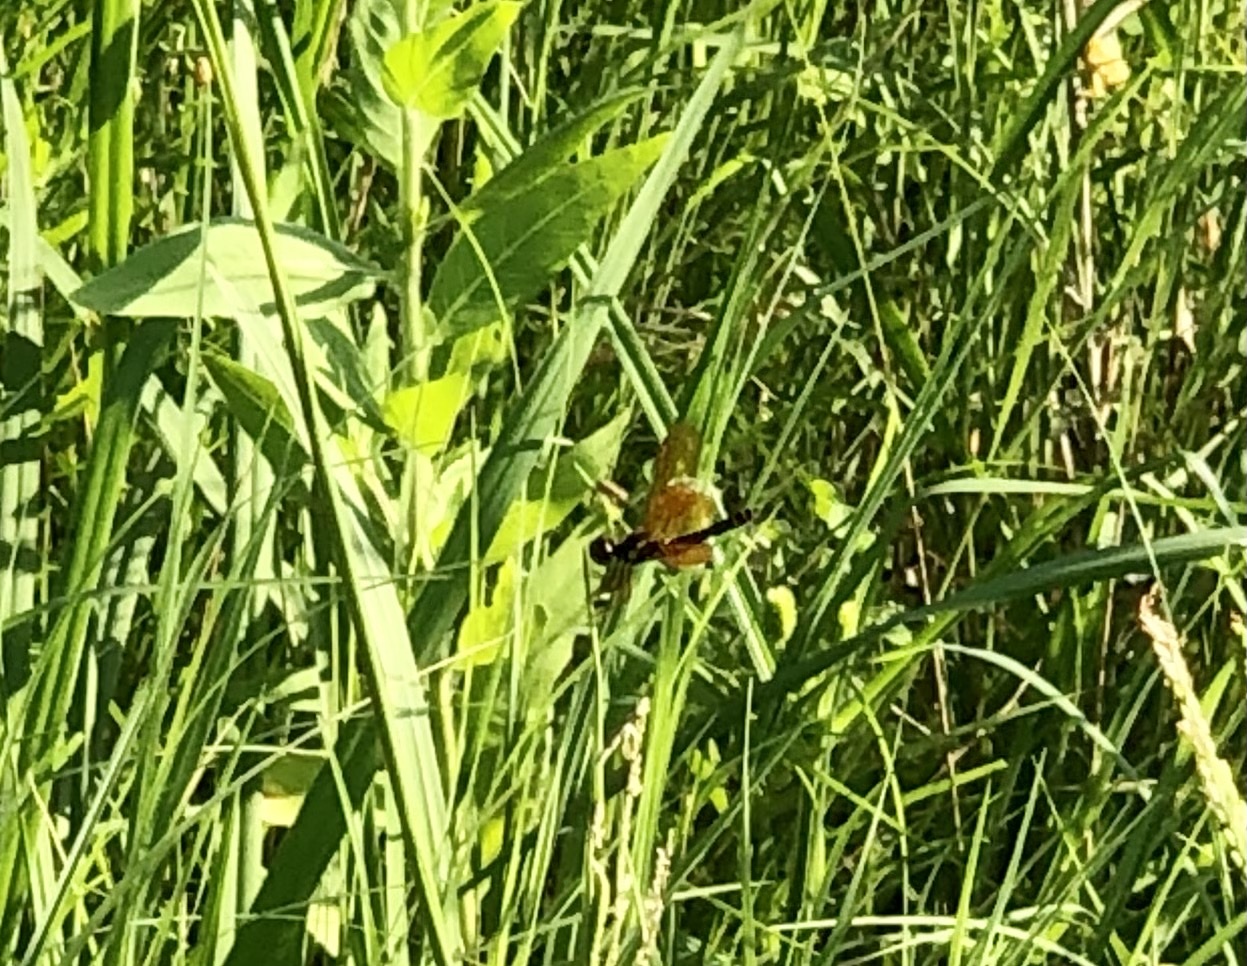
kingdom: Animalia
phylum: Arthropoda
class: Insecta
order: Odonata
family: Libellulidae
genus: Perithemis
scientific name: Perithemis tenera
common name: Eastern amberwing
